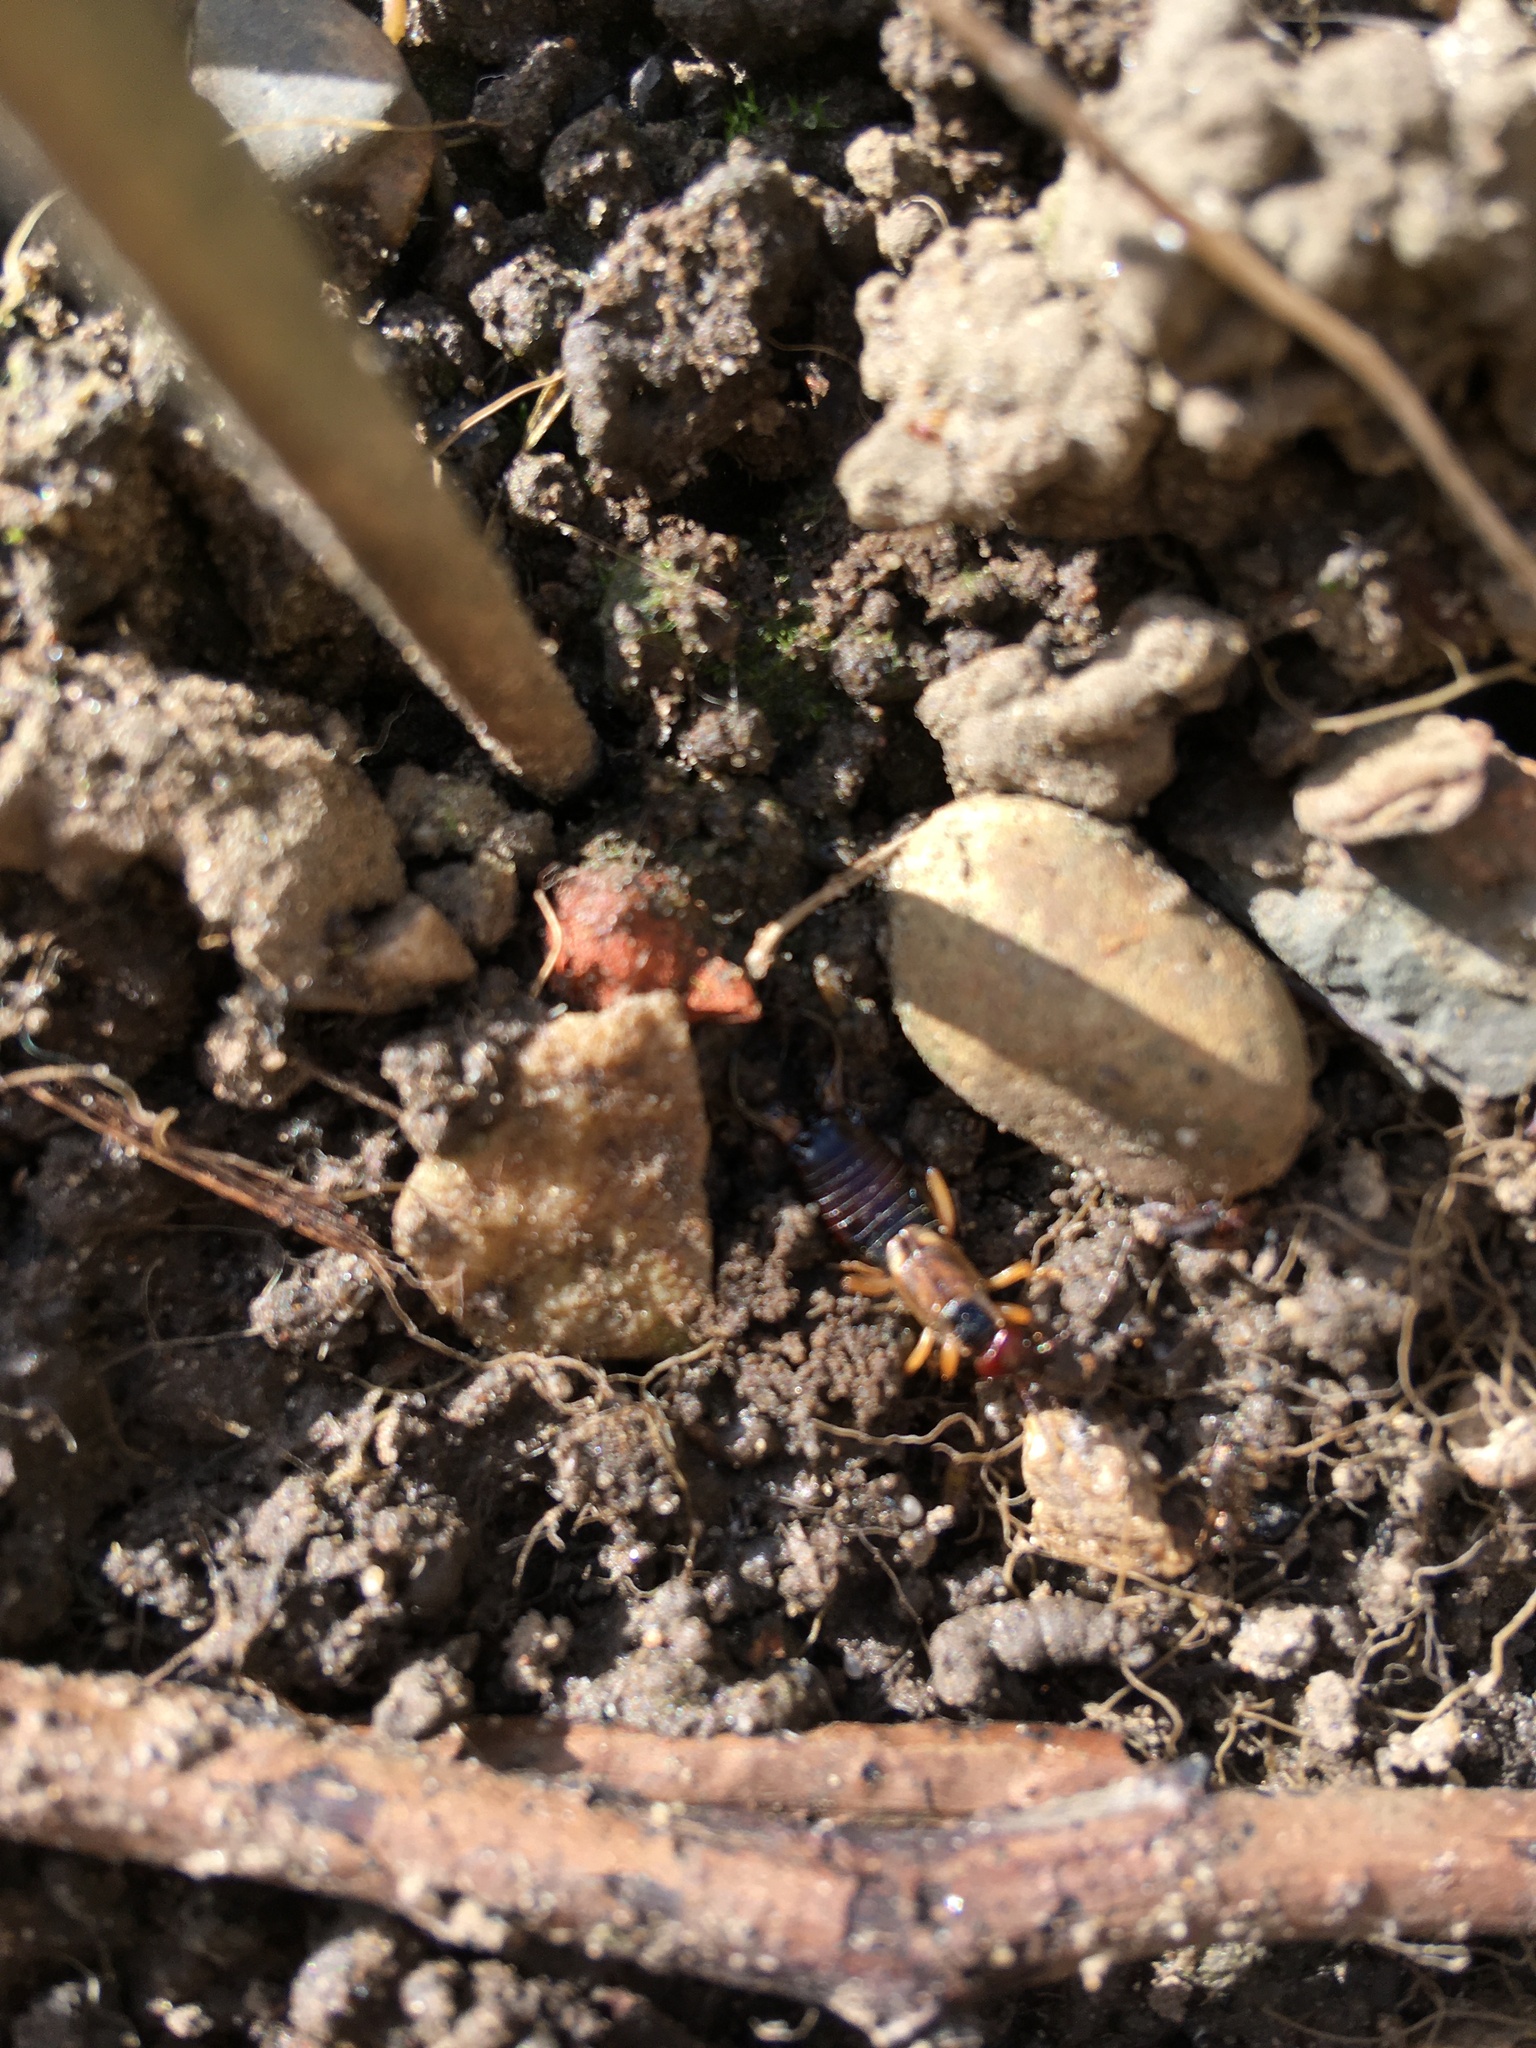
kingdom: Animalia
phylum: Arthropoda
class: Insecta
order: Dermaptera
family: Forficulidae
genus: Forficula
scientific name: Forficula
